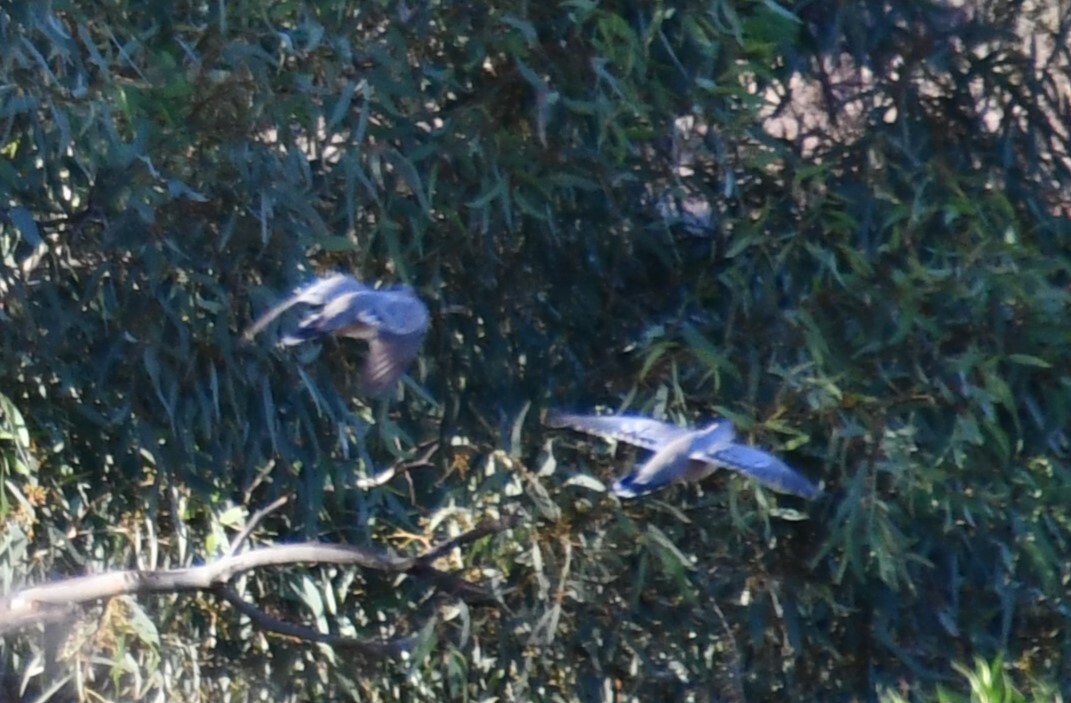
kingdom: Animalia
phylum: Chordata
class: Aves
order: Columbiformes
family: Columbidae
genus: Ocyphaps
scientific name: Ocyphaps lophotes
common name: Crested pigeon
